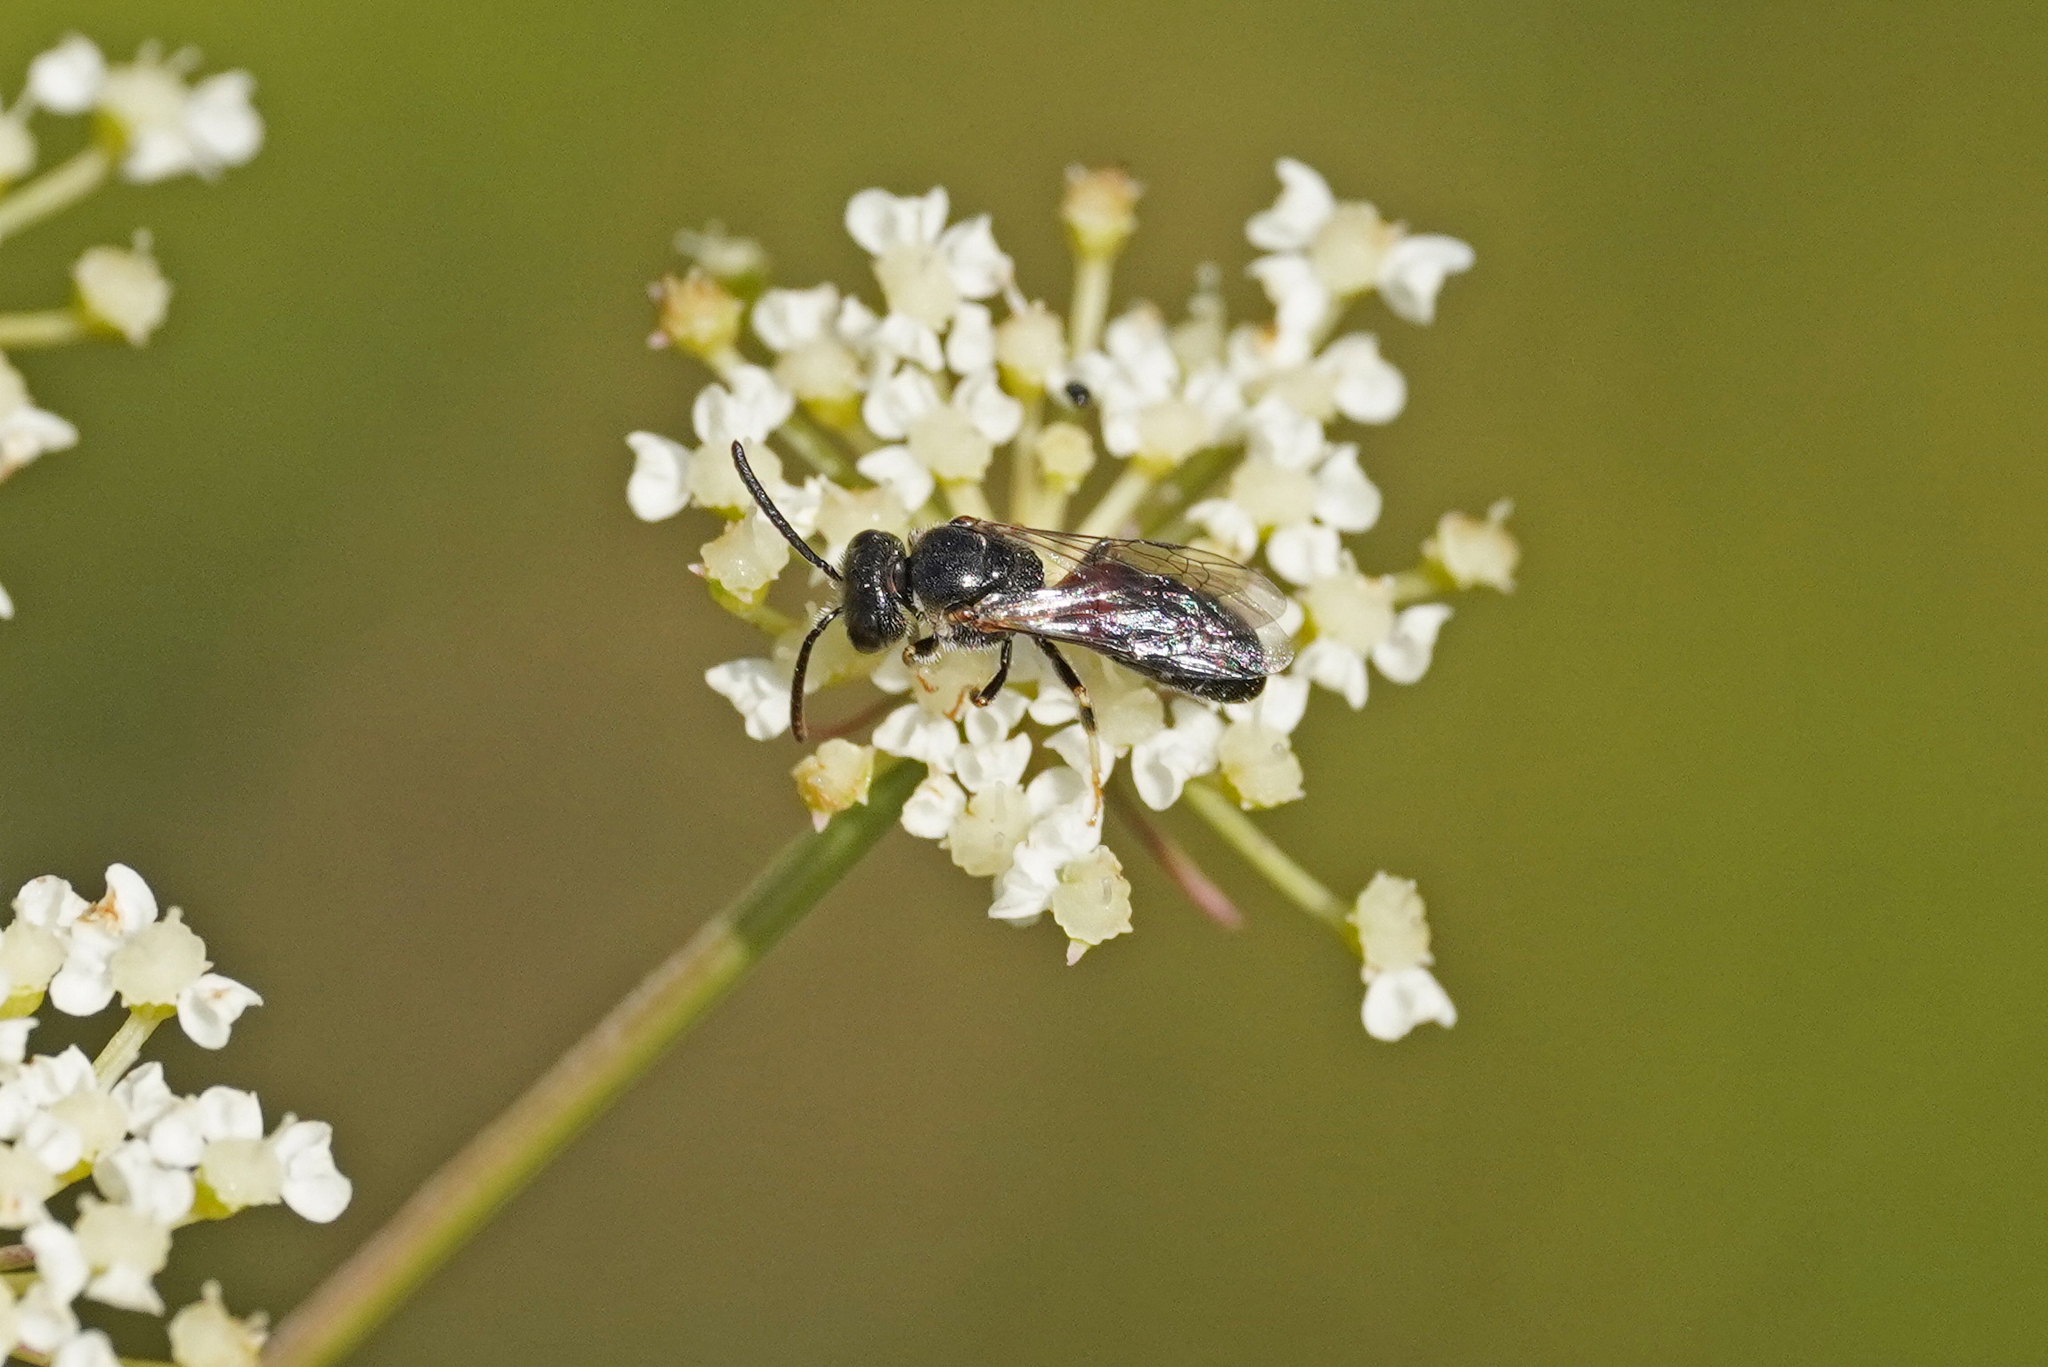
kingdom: Animalia
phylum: Arthropoda
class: Insecta
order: Hymenoptera
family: Halictidae
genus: Lasioglossum
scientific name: Lasioglossum interruptum
